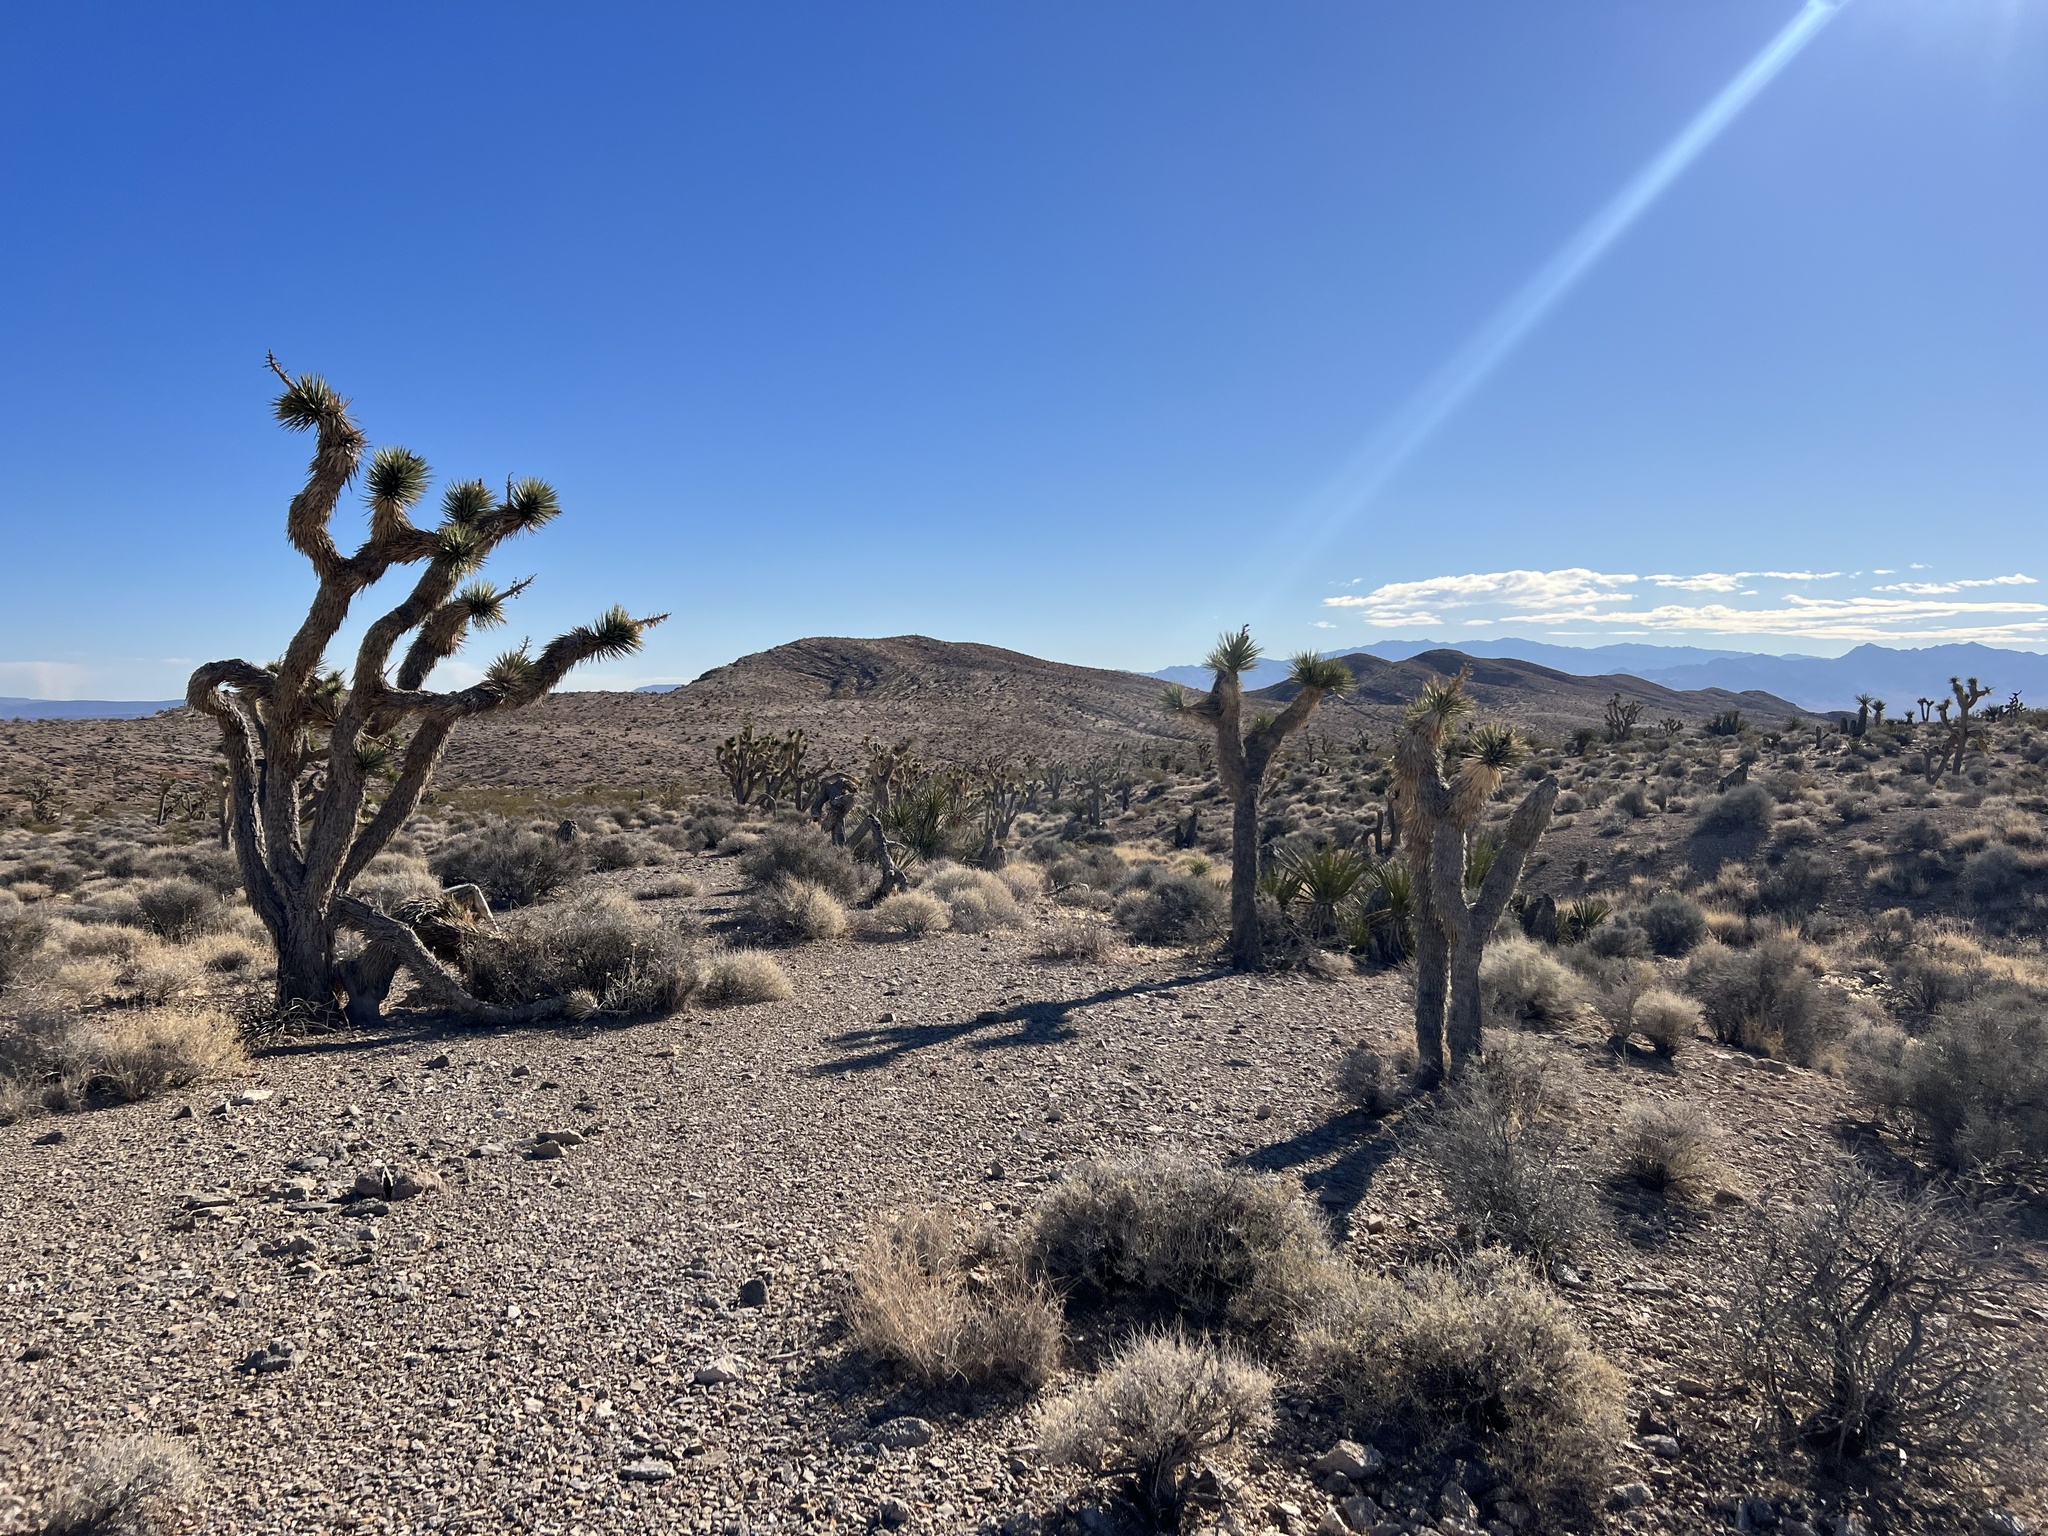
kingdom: Plantae
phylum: Tracheophyta
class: Liliopsida
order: Asparagales
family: Asparagaceae
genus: Yucca
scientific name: Yucca brevifolia
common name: Joshua tree
